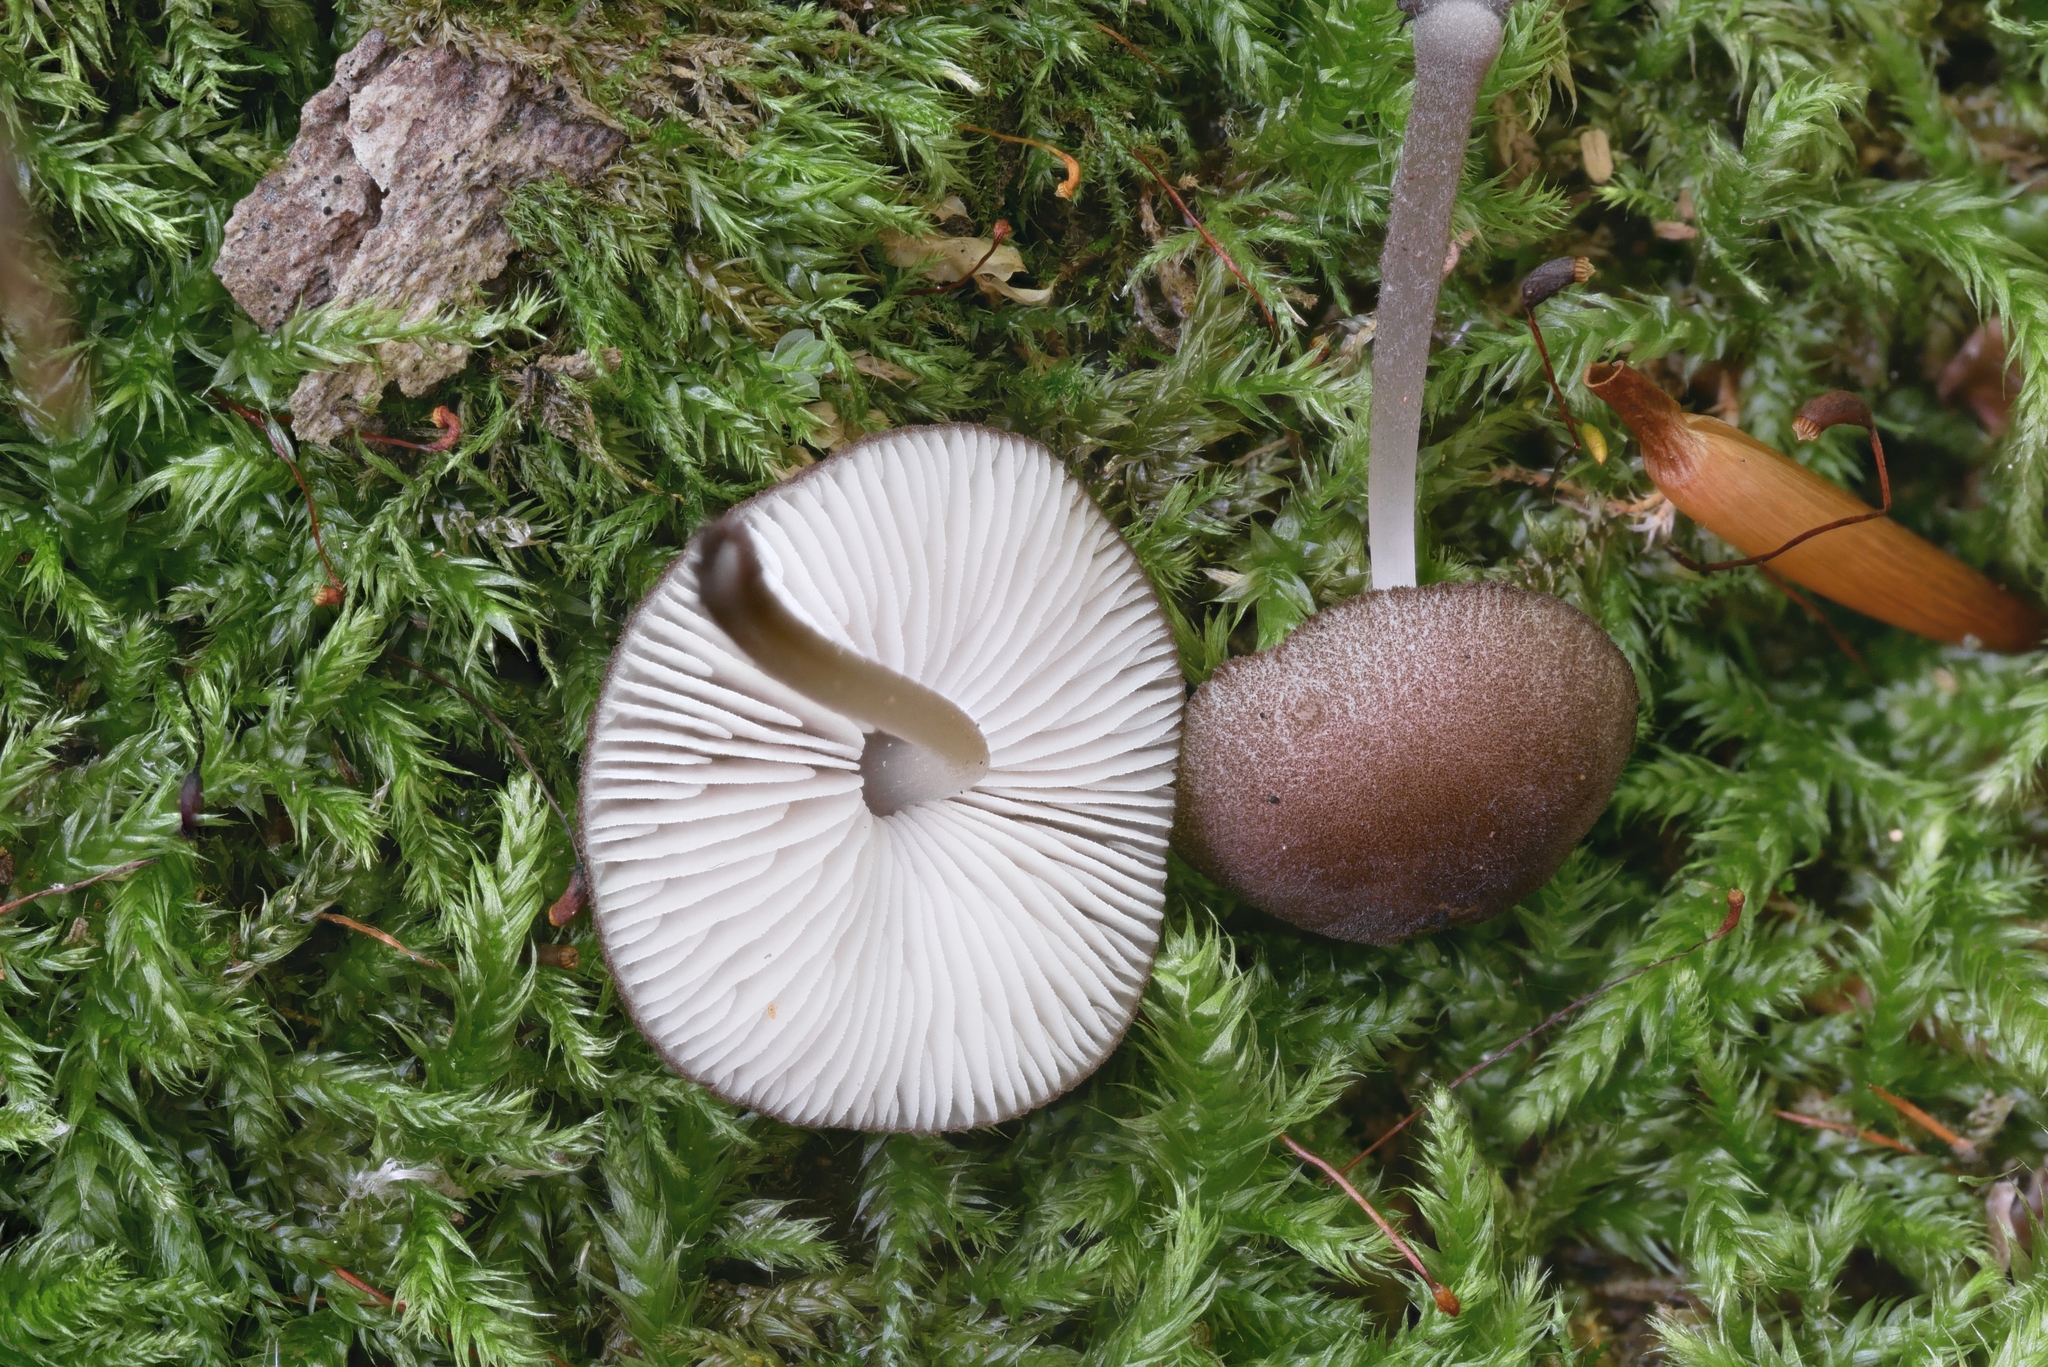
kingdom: Fungi
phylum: Basidiomycota
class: Agaricomycetes
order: Agaricales
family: Pluteaceae
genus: Pluteus
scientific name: Pluteus podospileus
